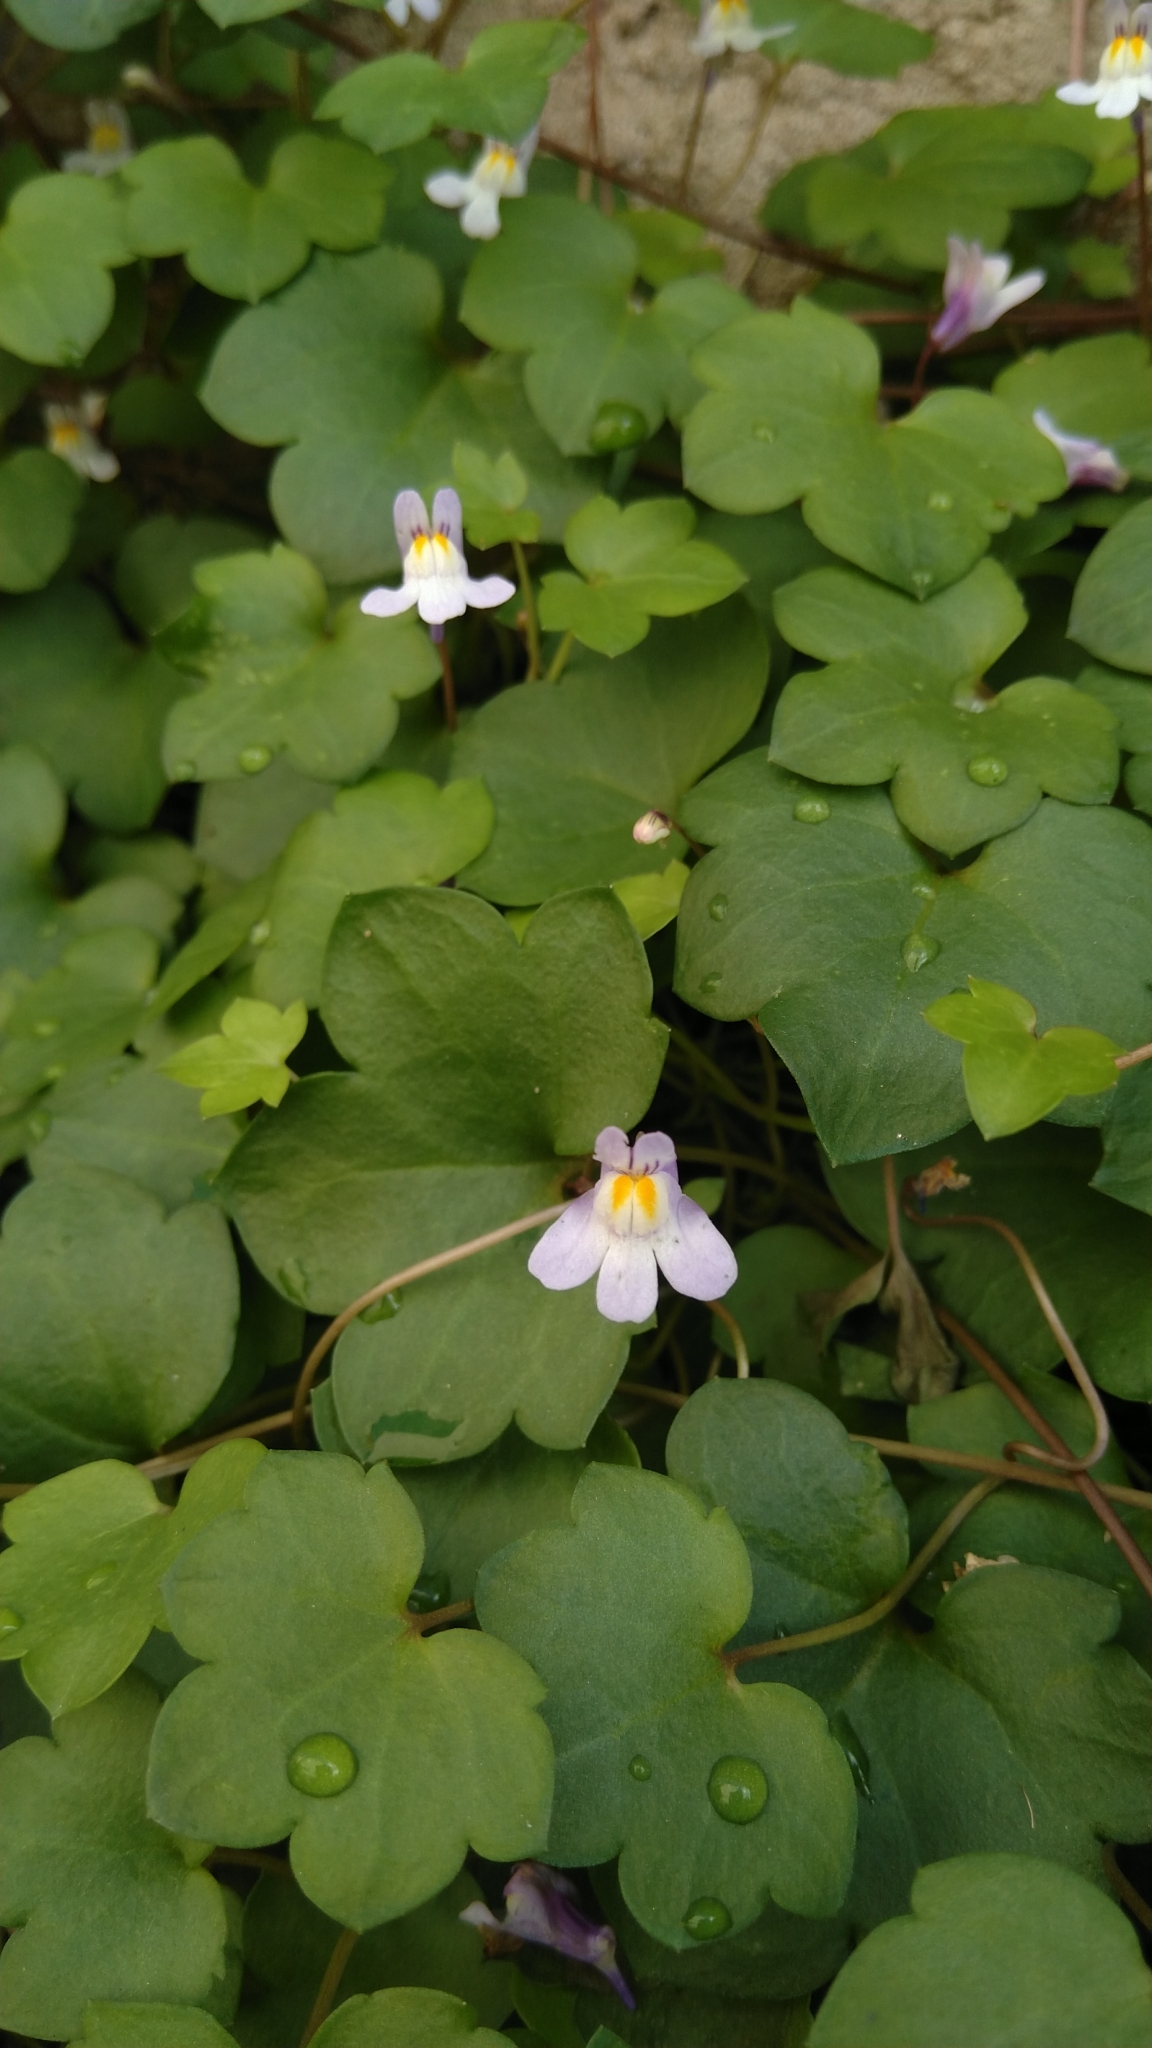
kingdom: Plantae
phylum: Tracheophyta
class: Magnoliopsida
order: Lamiales
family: Plantaginaceae
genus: Cymbalaria
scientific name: Cymbalaria muralis
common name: Ivy-leaved toadflax
